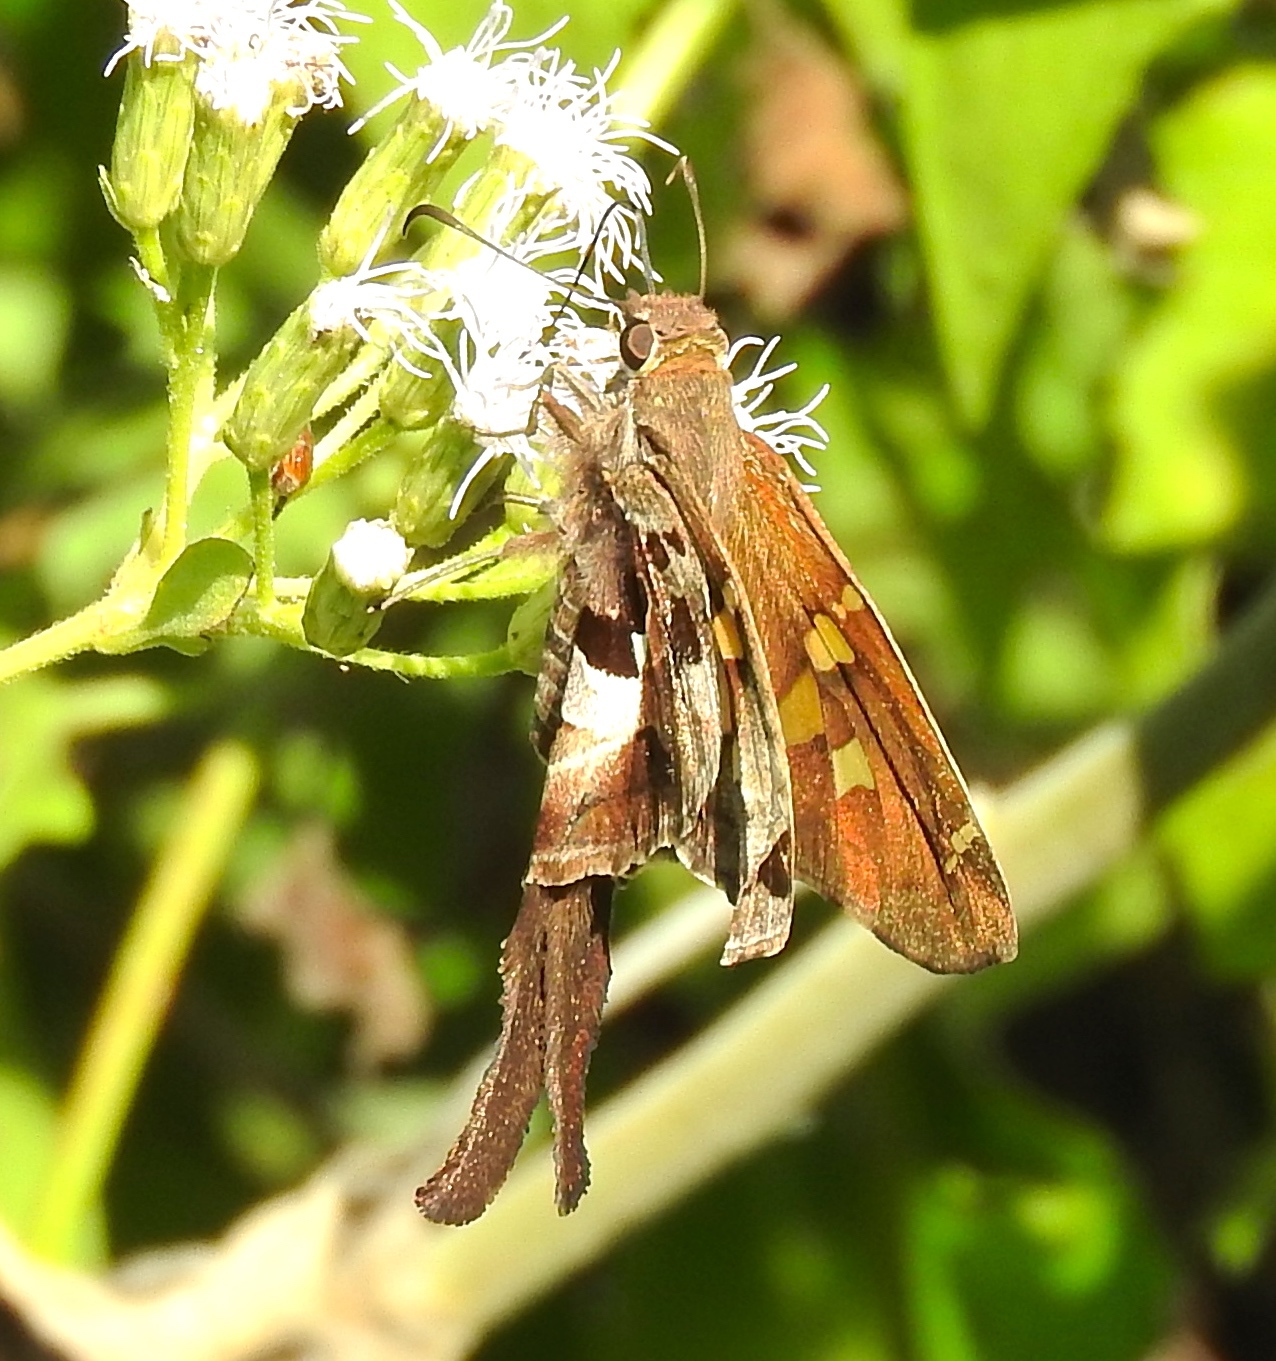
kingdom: Animalia
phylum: Arthropoda
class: Insecta
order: Lepidoptera
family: Hesperiidae
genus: Chioides
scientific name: Chioides zilpa
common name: Zilpa longtail
